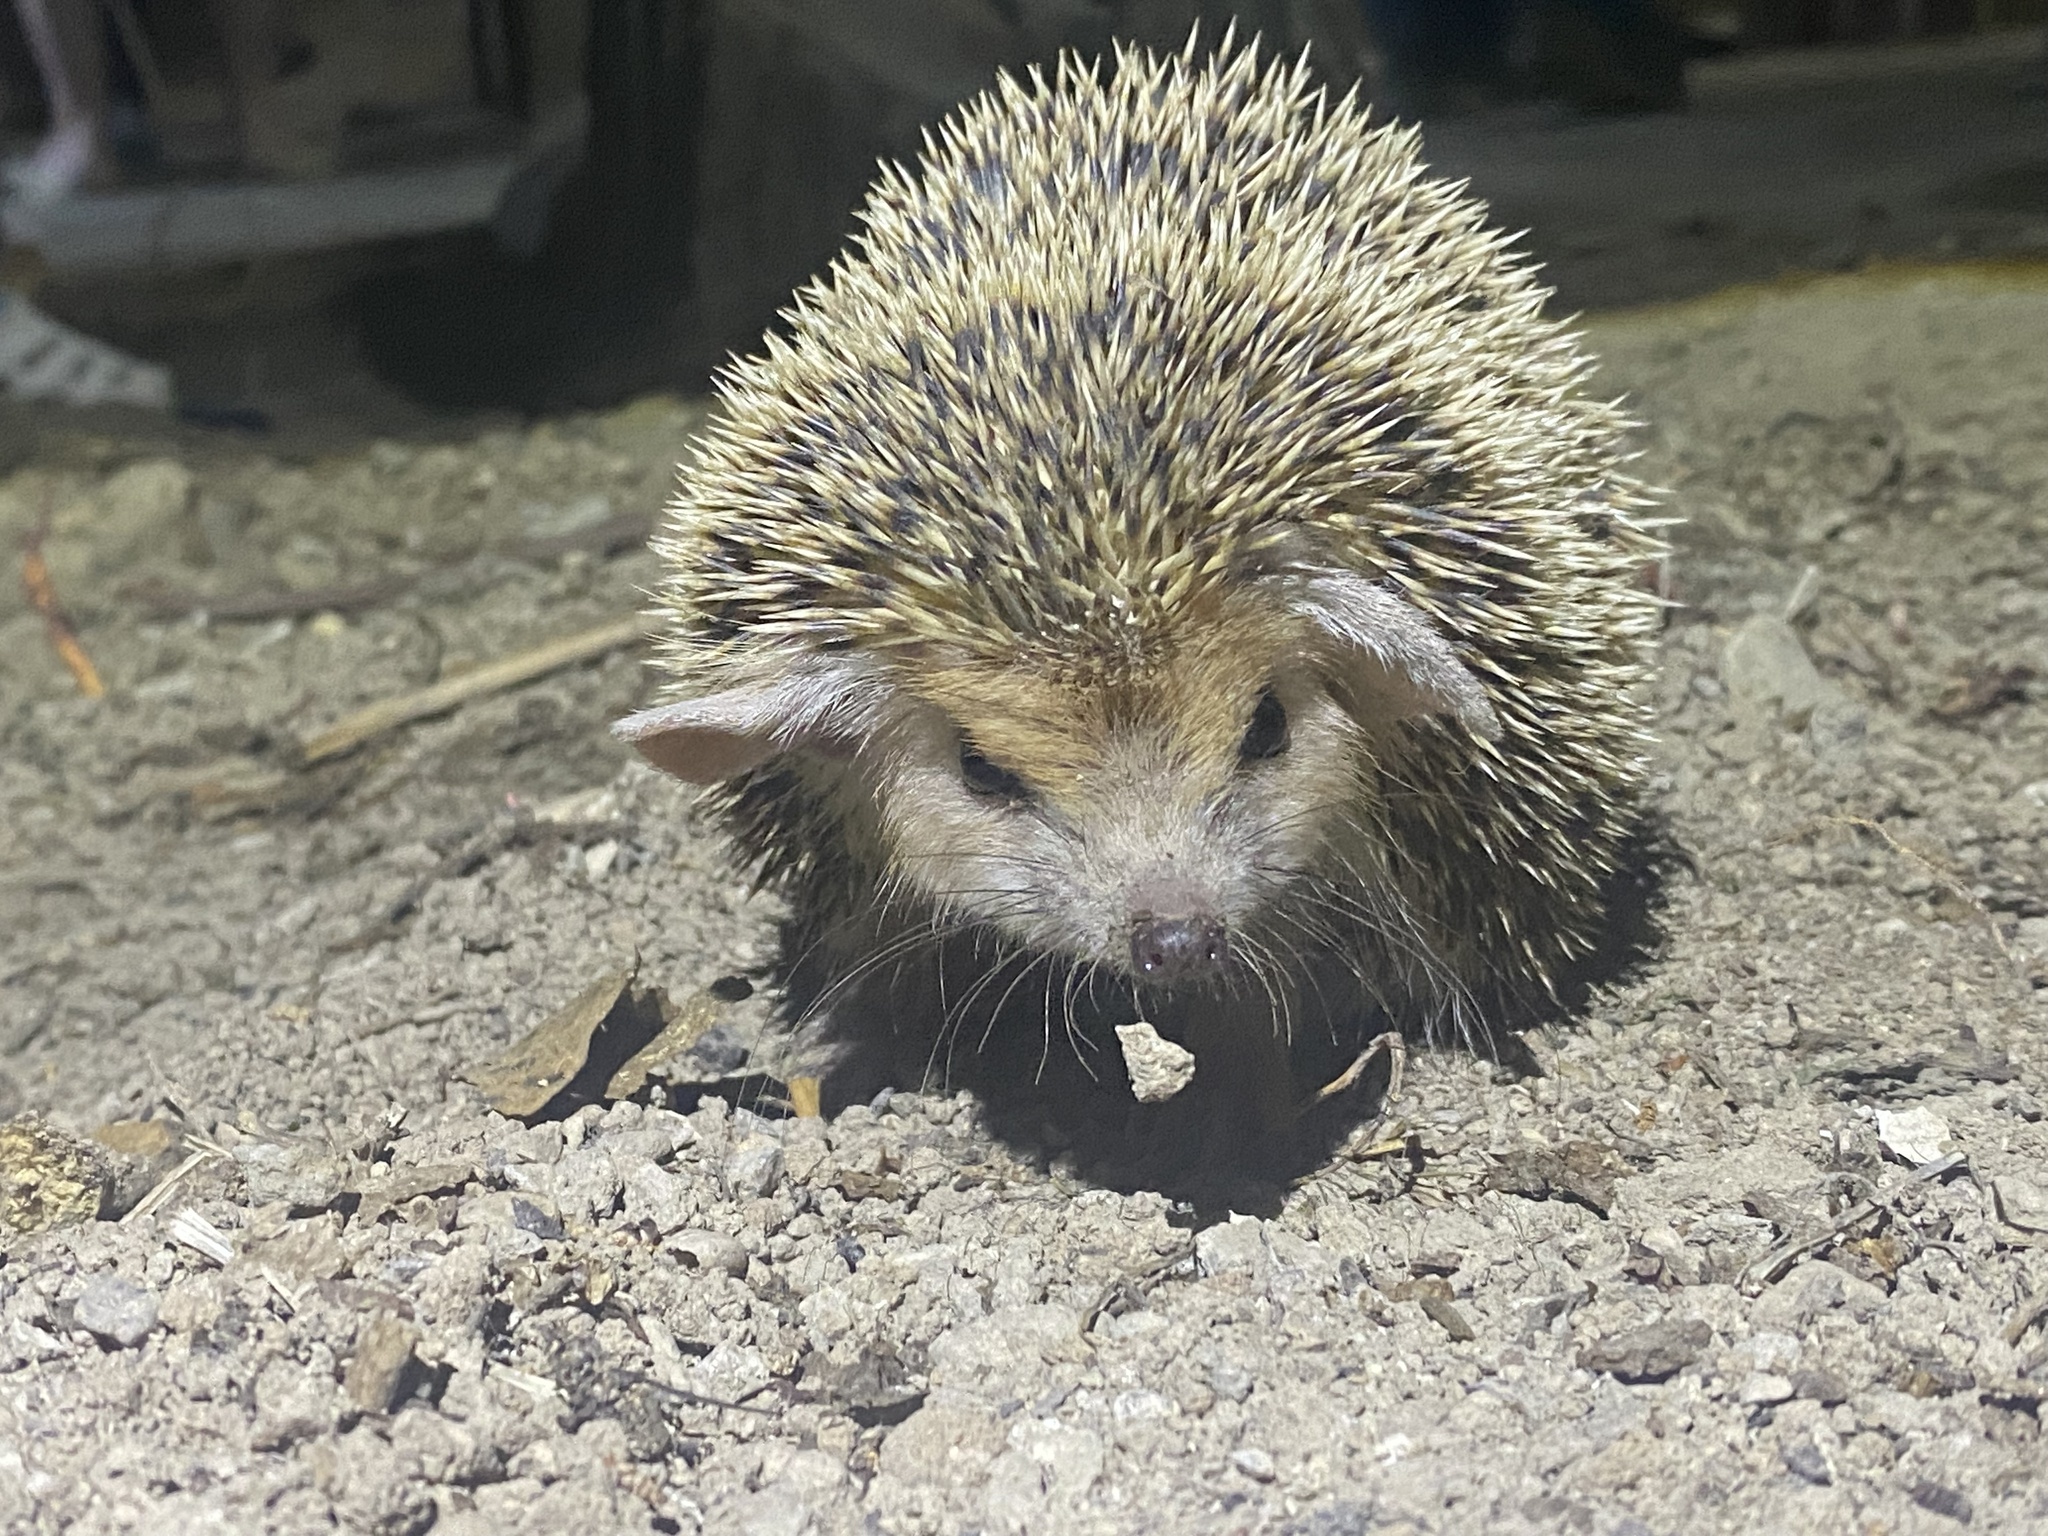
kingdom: Animalia
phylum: Chordata
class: Mammalia
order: Erinaceomorpha
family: Erinaceidae
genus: Hemiechinus
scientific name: Hemiechinus auritus
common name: Long-eared hedgehog
